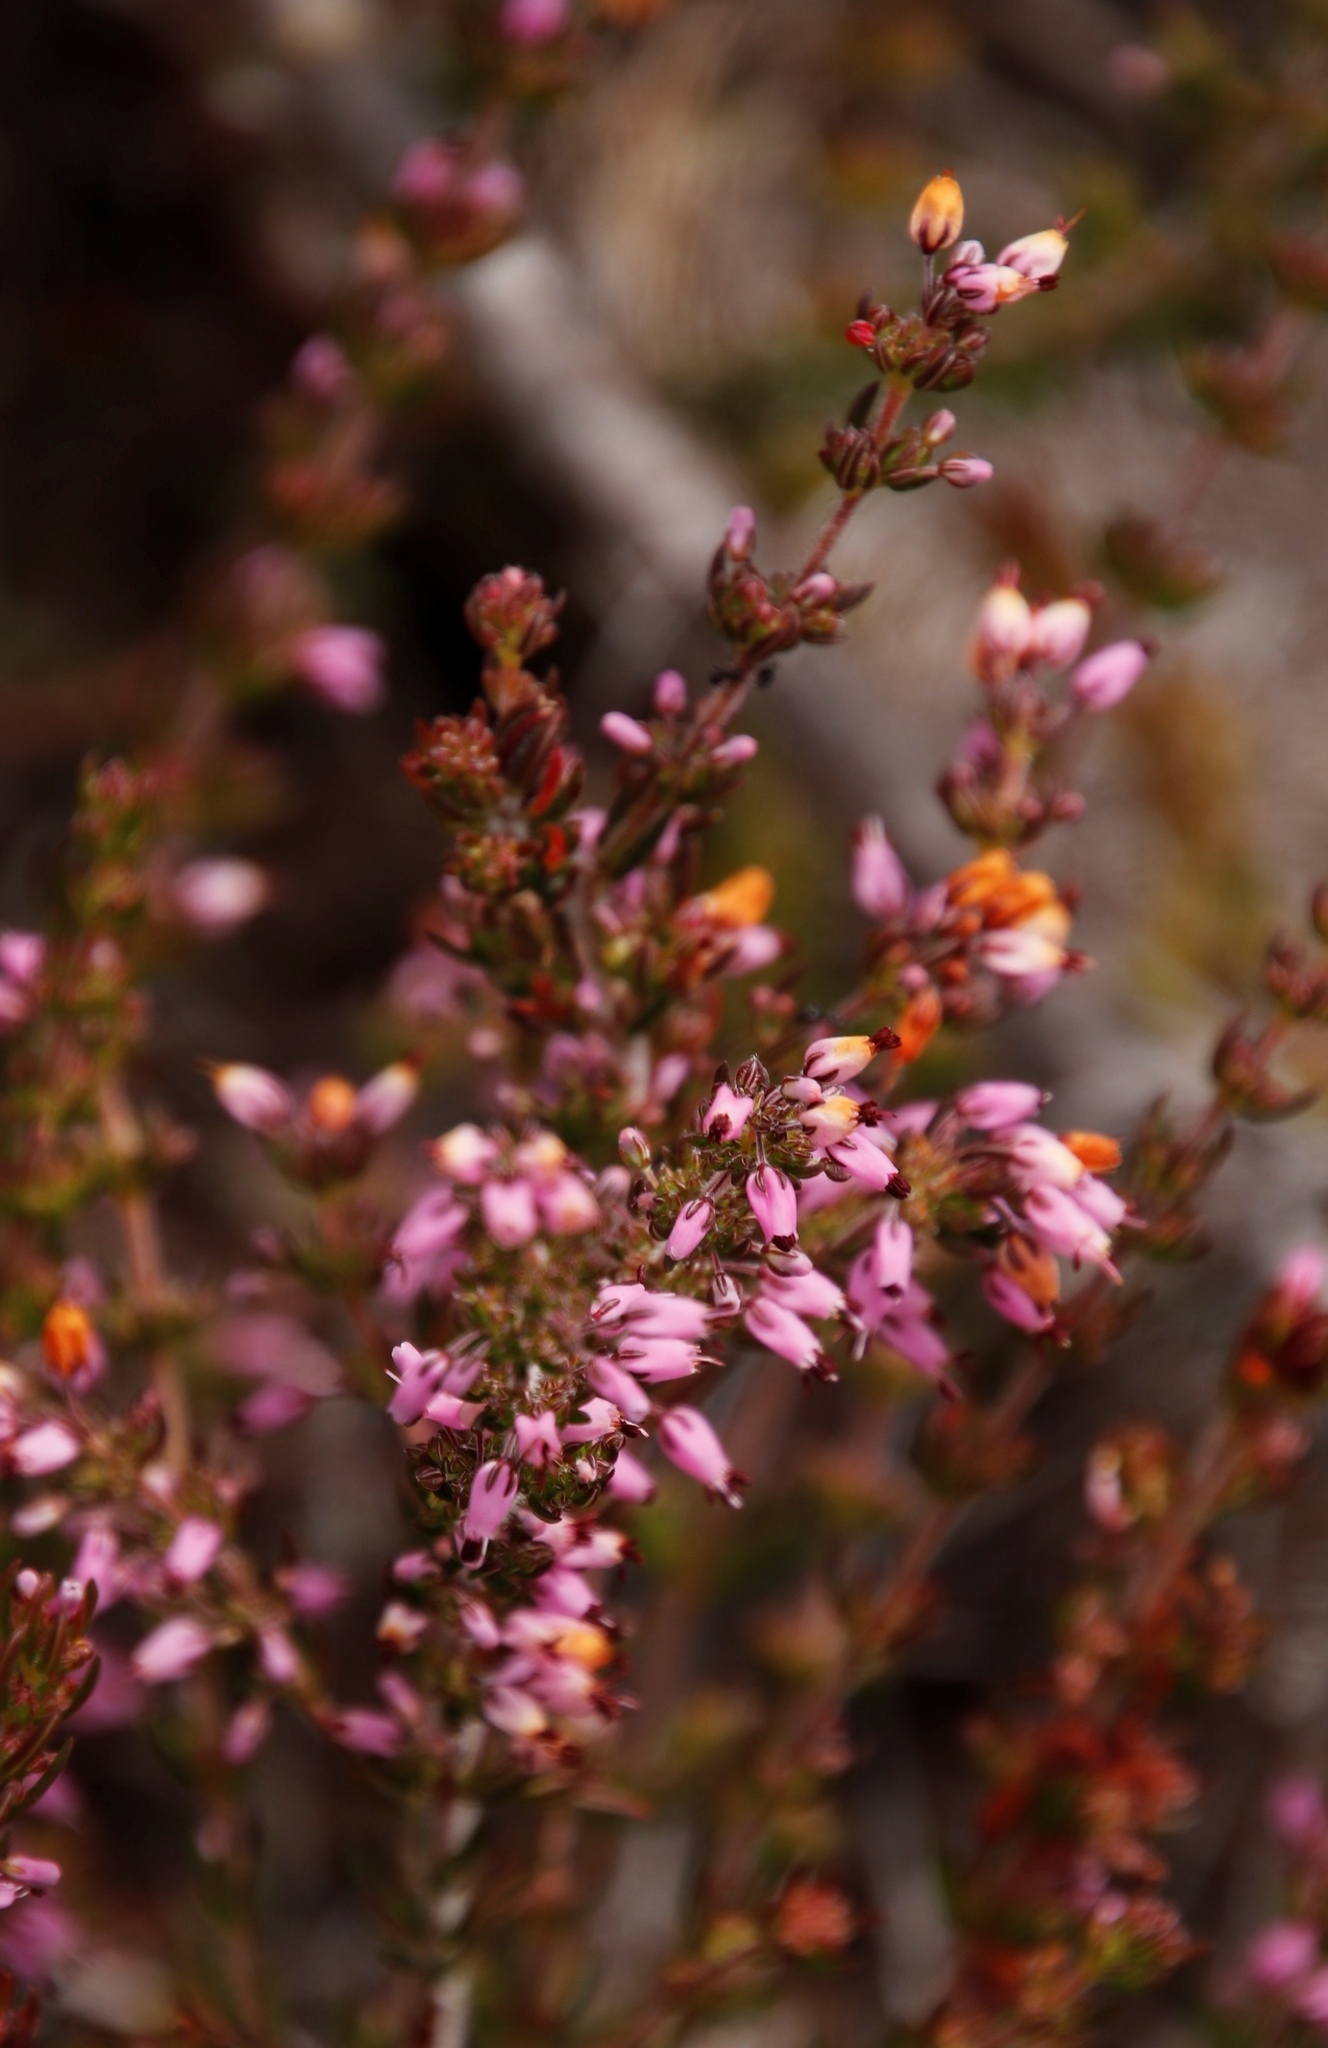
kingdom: Plantae
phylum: Tracheophyta
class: Magnoliopsida
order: Ericales
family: Ericaceae
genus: Erica
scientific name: Erica nudiflora
